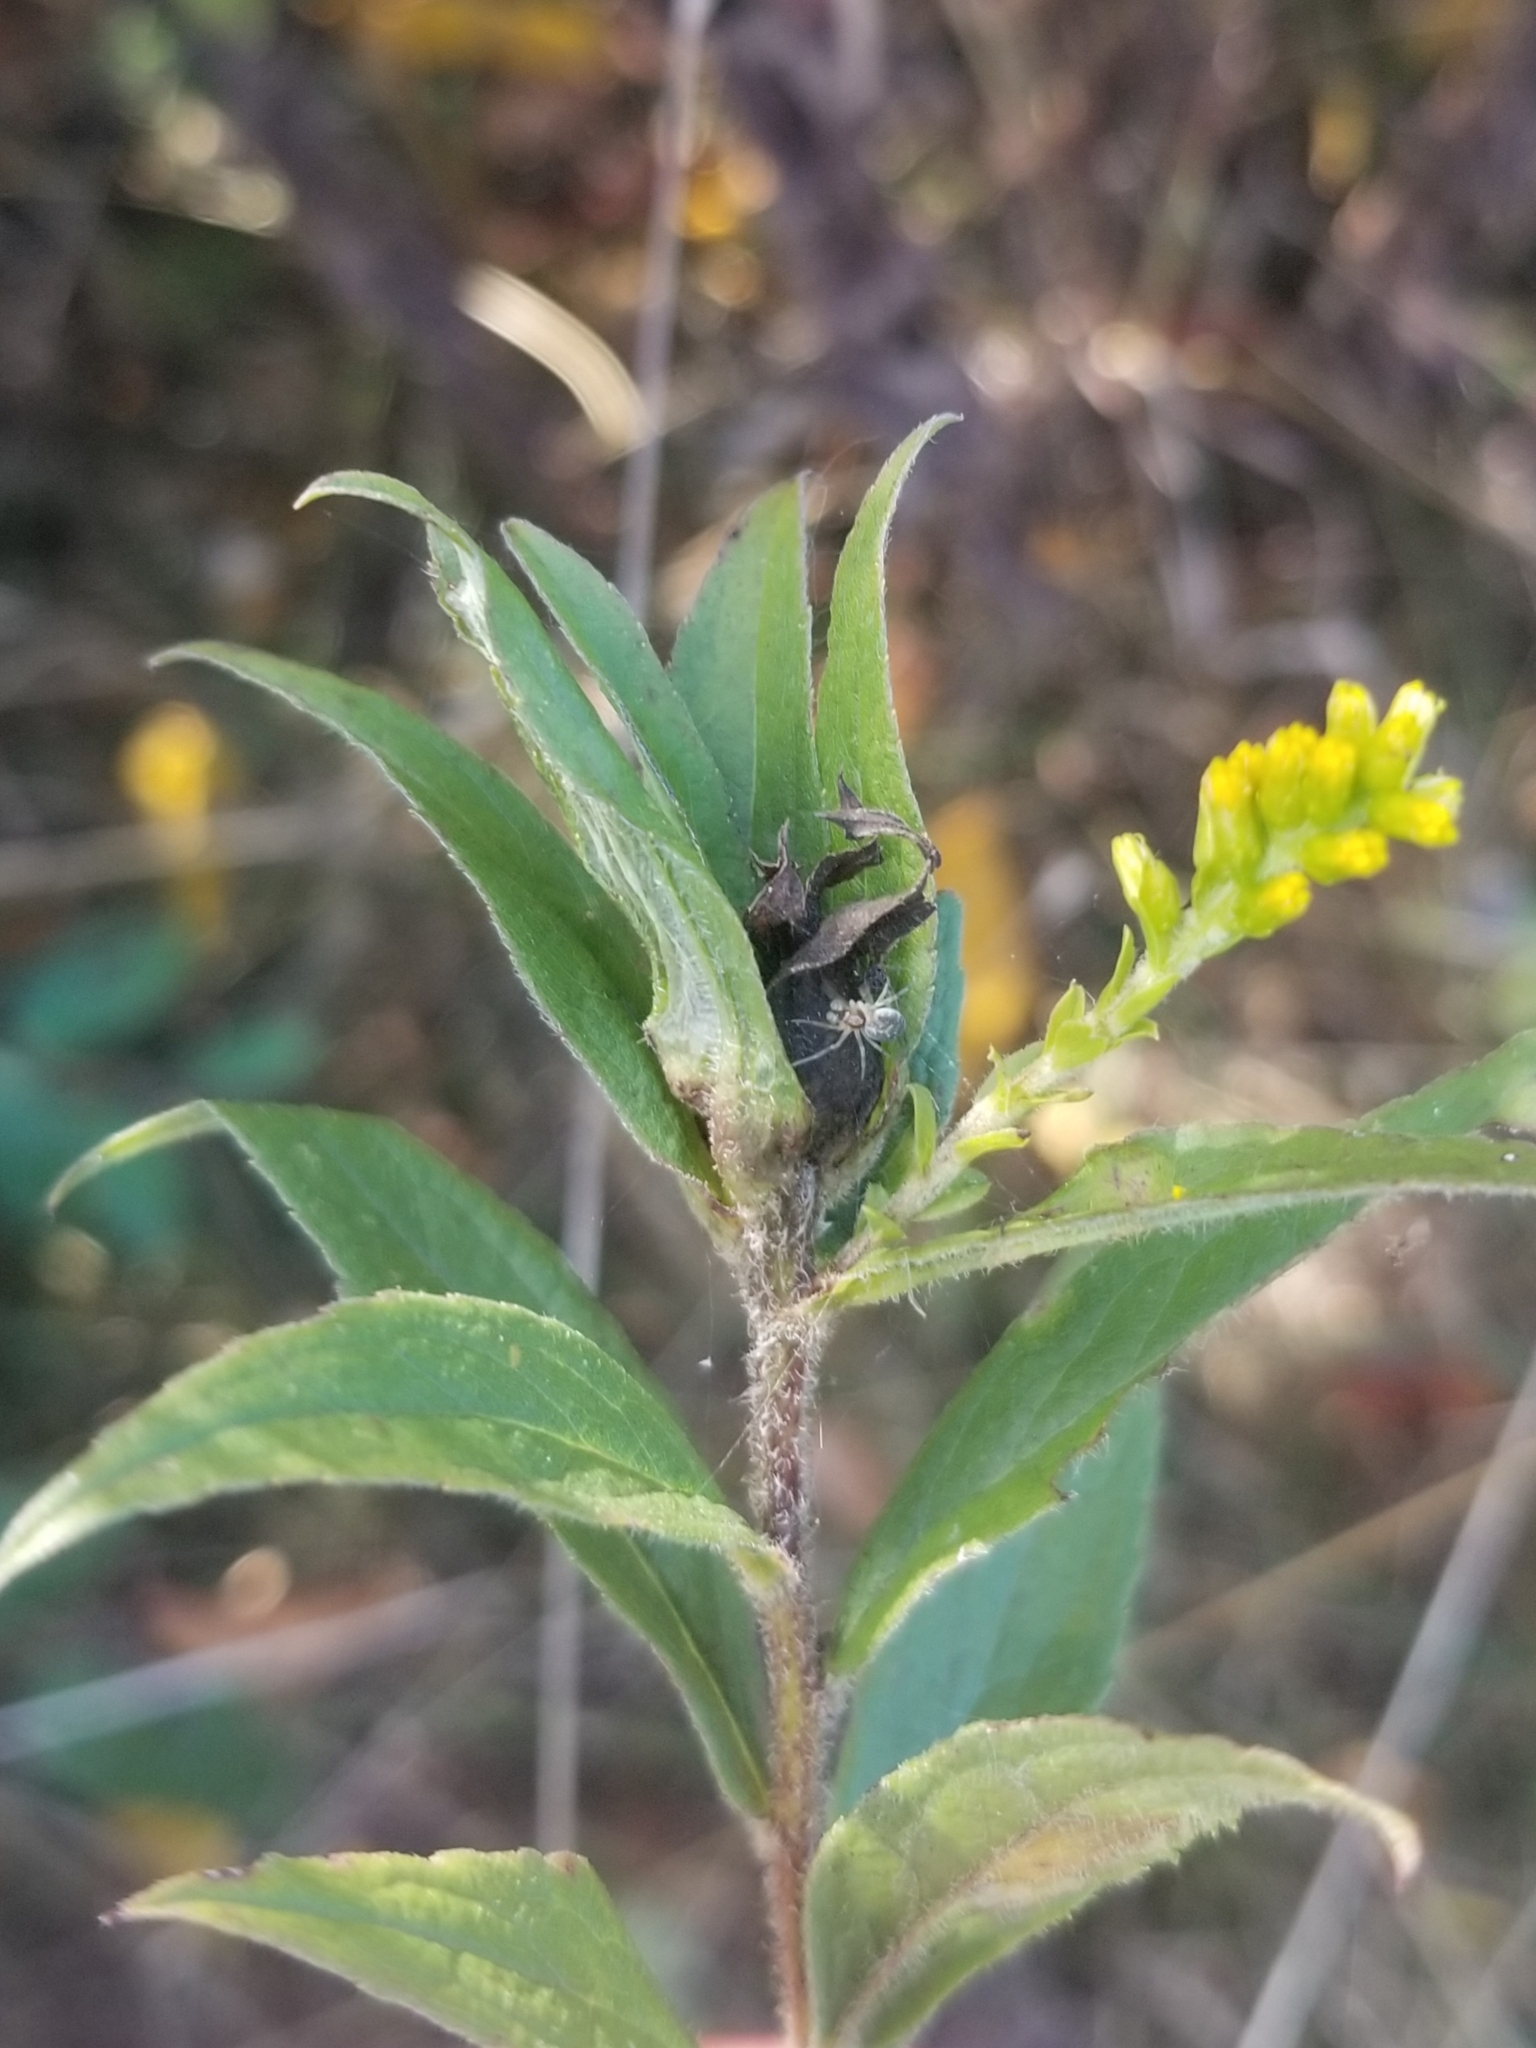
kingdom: Animalia
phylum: Arthropoda
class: Insecta
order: Diptera
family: Cecidomyiidae
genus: Dasineura
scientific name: Dasineura folliculi
